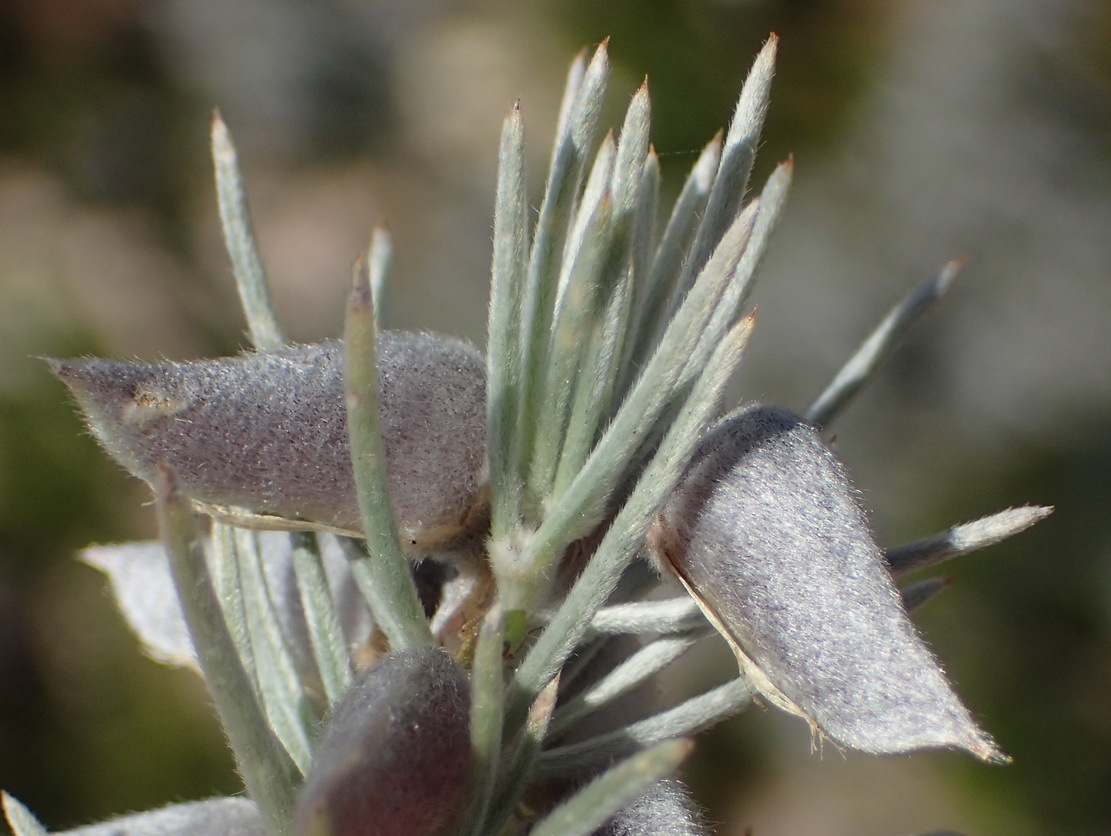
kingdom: Plantae
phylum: Tracheophyta
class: Magnoliopsida
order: Fabales
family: Fabaceae
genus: Aspalathus
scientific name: Aspalathus florifera
